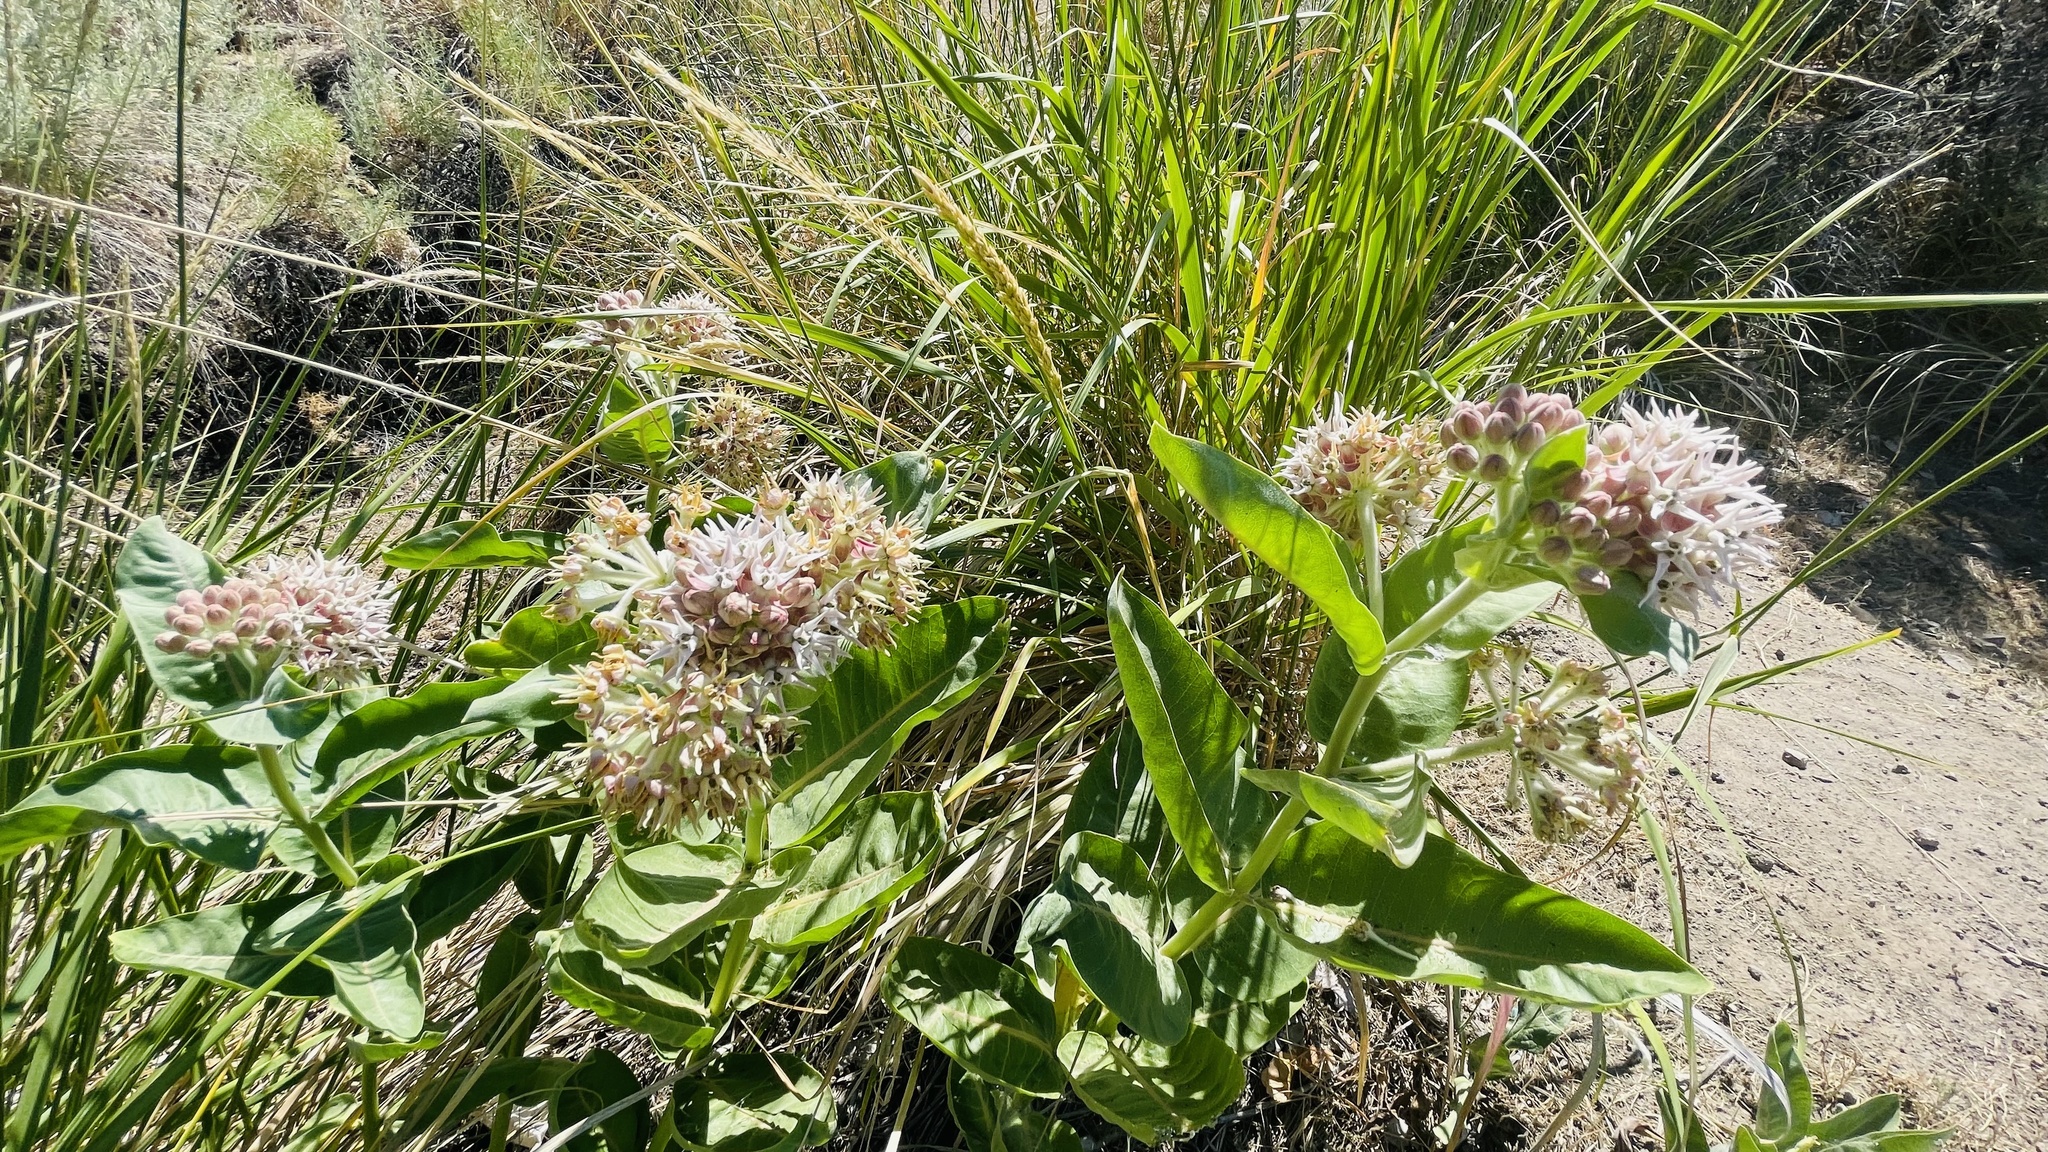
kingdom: Plantae
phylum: Tracheophyta
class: Magnoliopsida
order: Gentianales
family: Apocynaceae
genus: Asclepias
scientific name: Asclepias speciosa
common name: Showy milkweed
